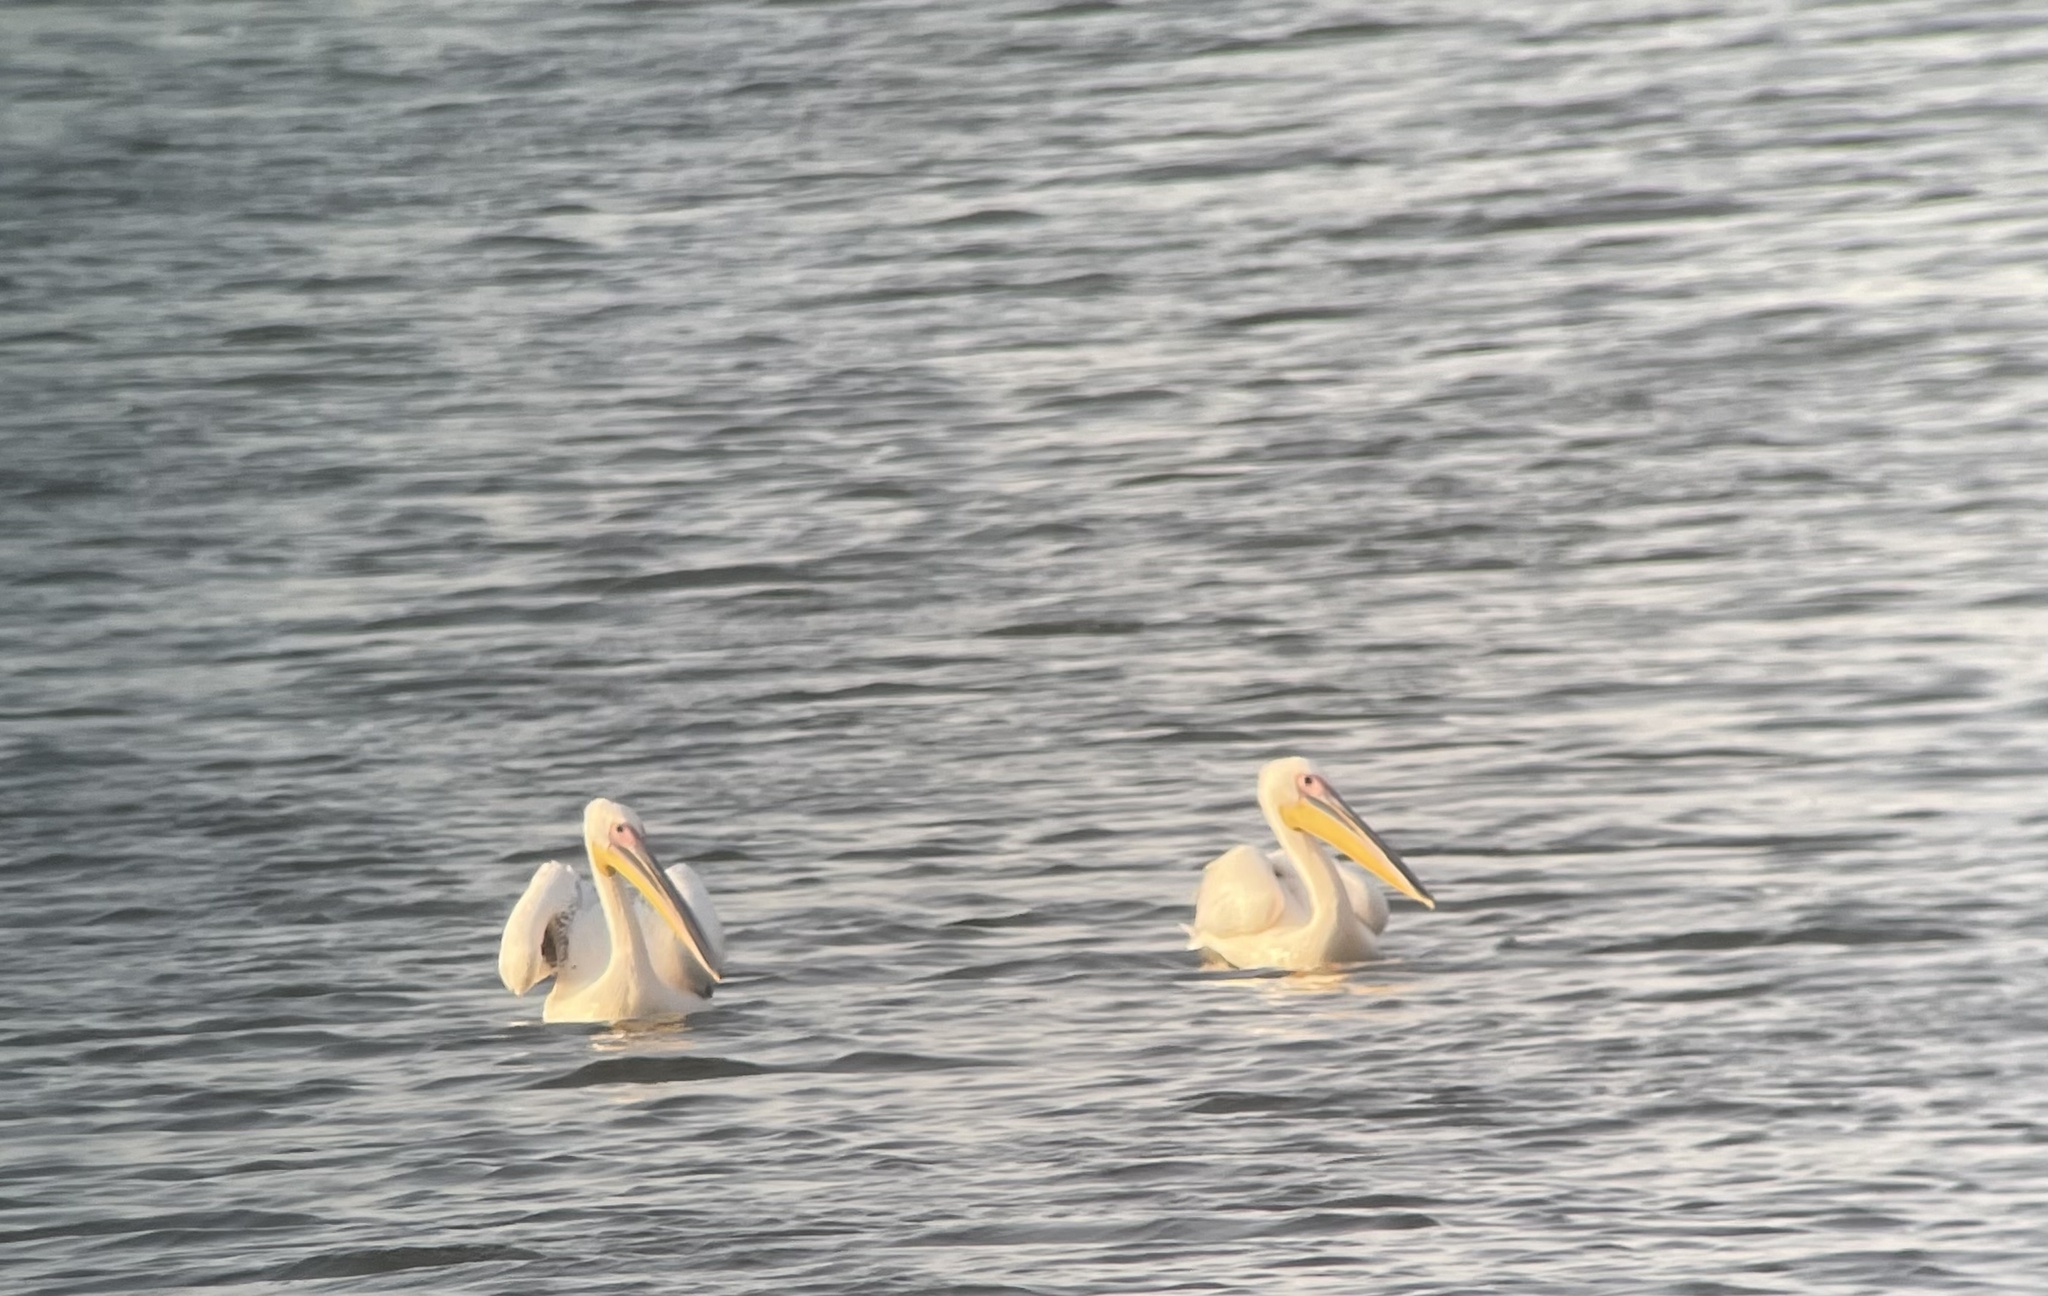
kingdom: Animalia
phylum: Chordata
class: Aves
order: Pelecaniformes
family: Pelecanidae
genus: Pelecanus
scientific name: Pelecanus onocrotalus
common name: Great white pelican
